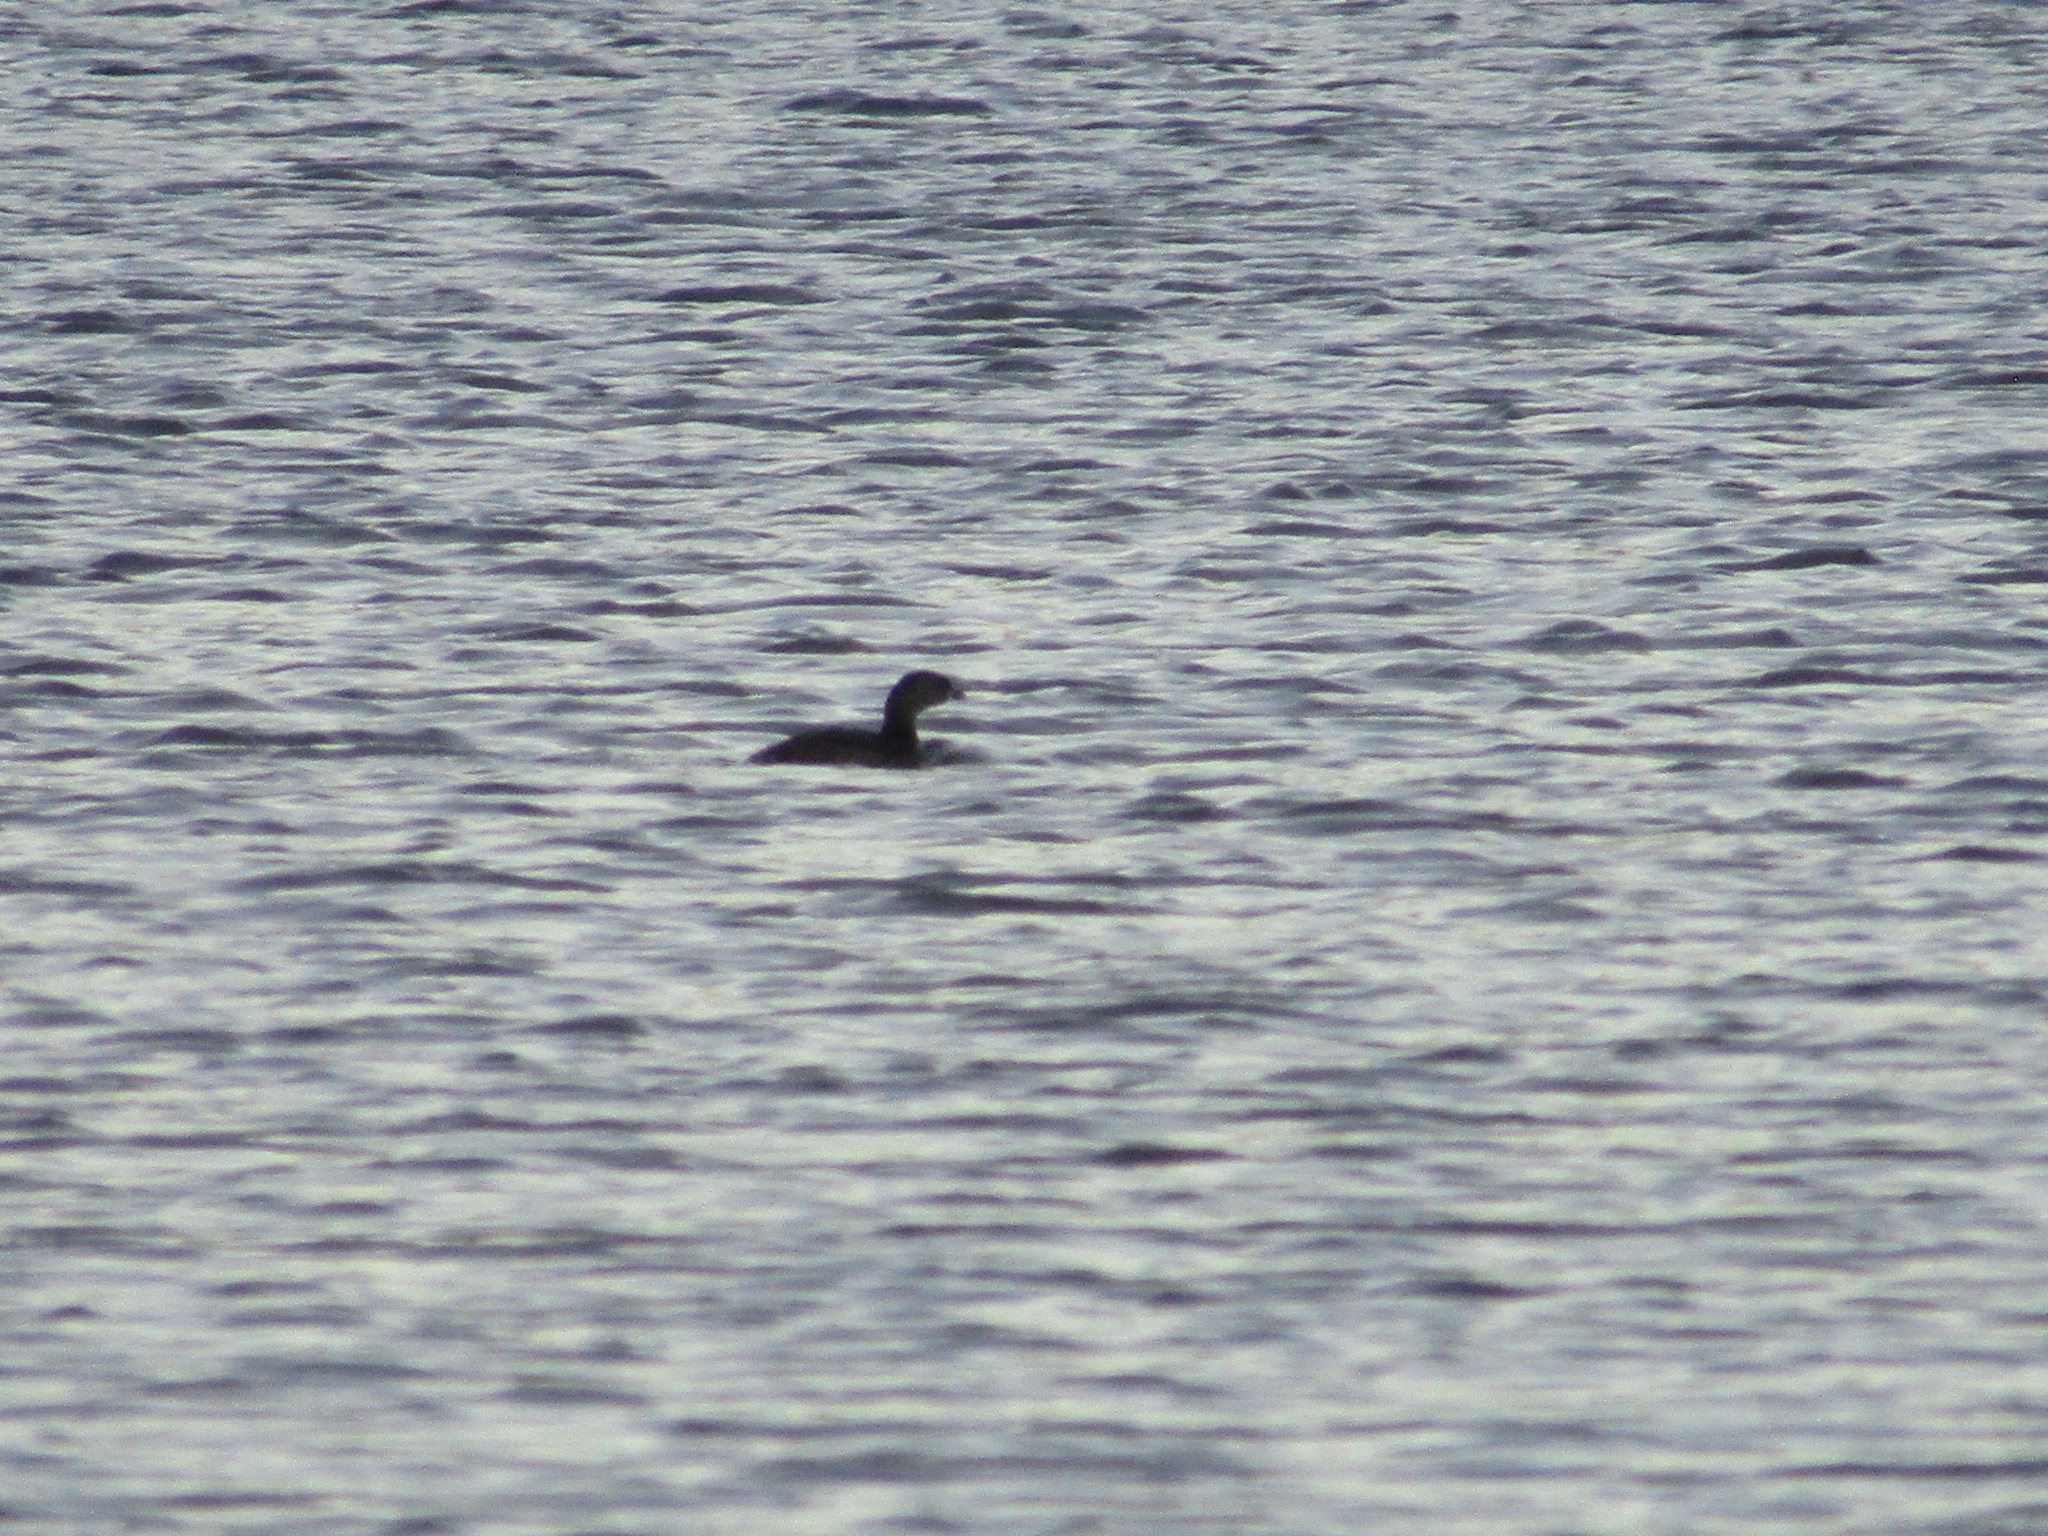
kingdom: Animalia
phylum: Chordata
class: Aves
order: Podicipediformes
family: Podicipedidae
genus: Podilymbus
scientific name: Podilymbus podiceps
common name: Pied-billed grebe
